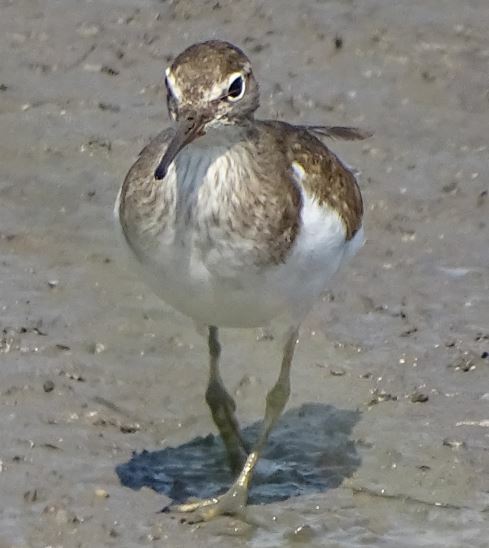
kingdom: Animalia
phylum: Chordata
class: Aves
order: Charadriiformes
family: Scolopacidae
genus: Actitis
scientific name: Actitis hypoleucos
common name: Common sandpiper
